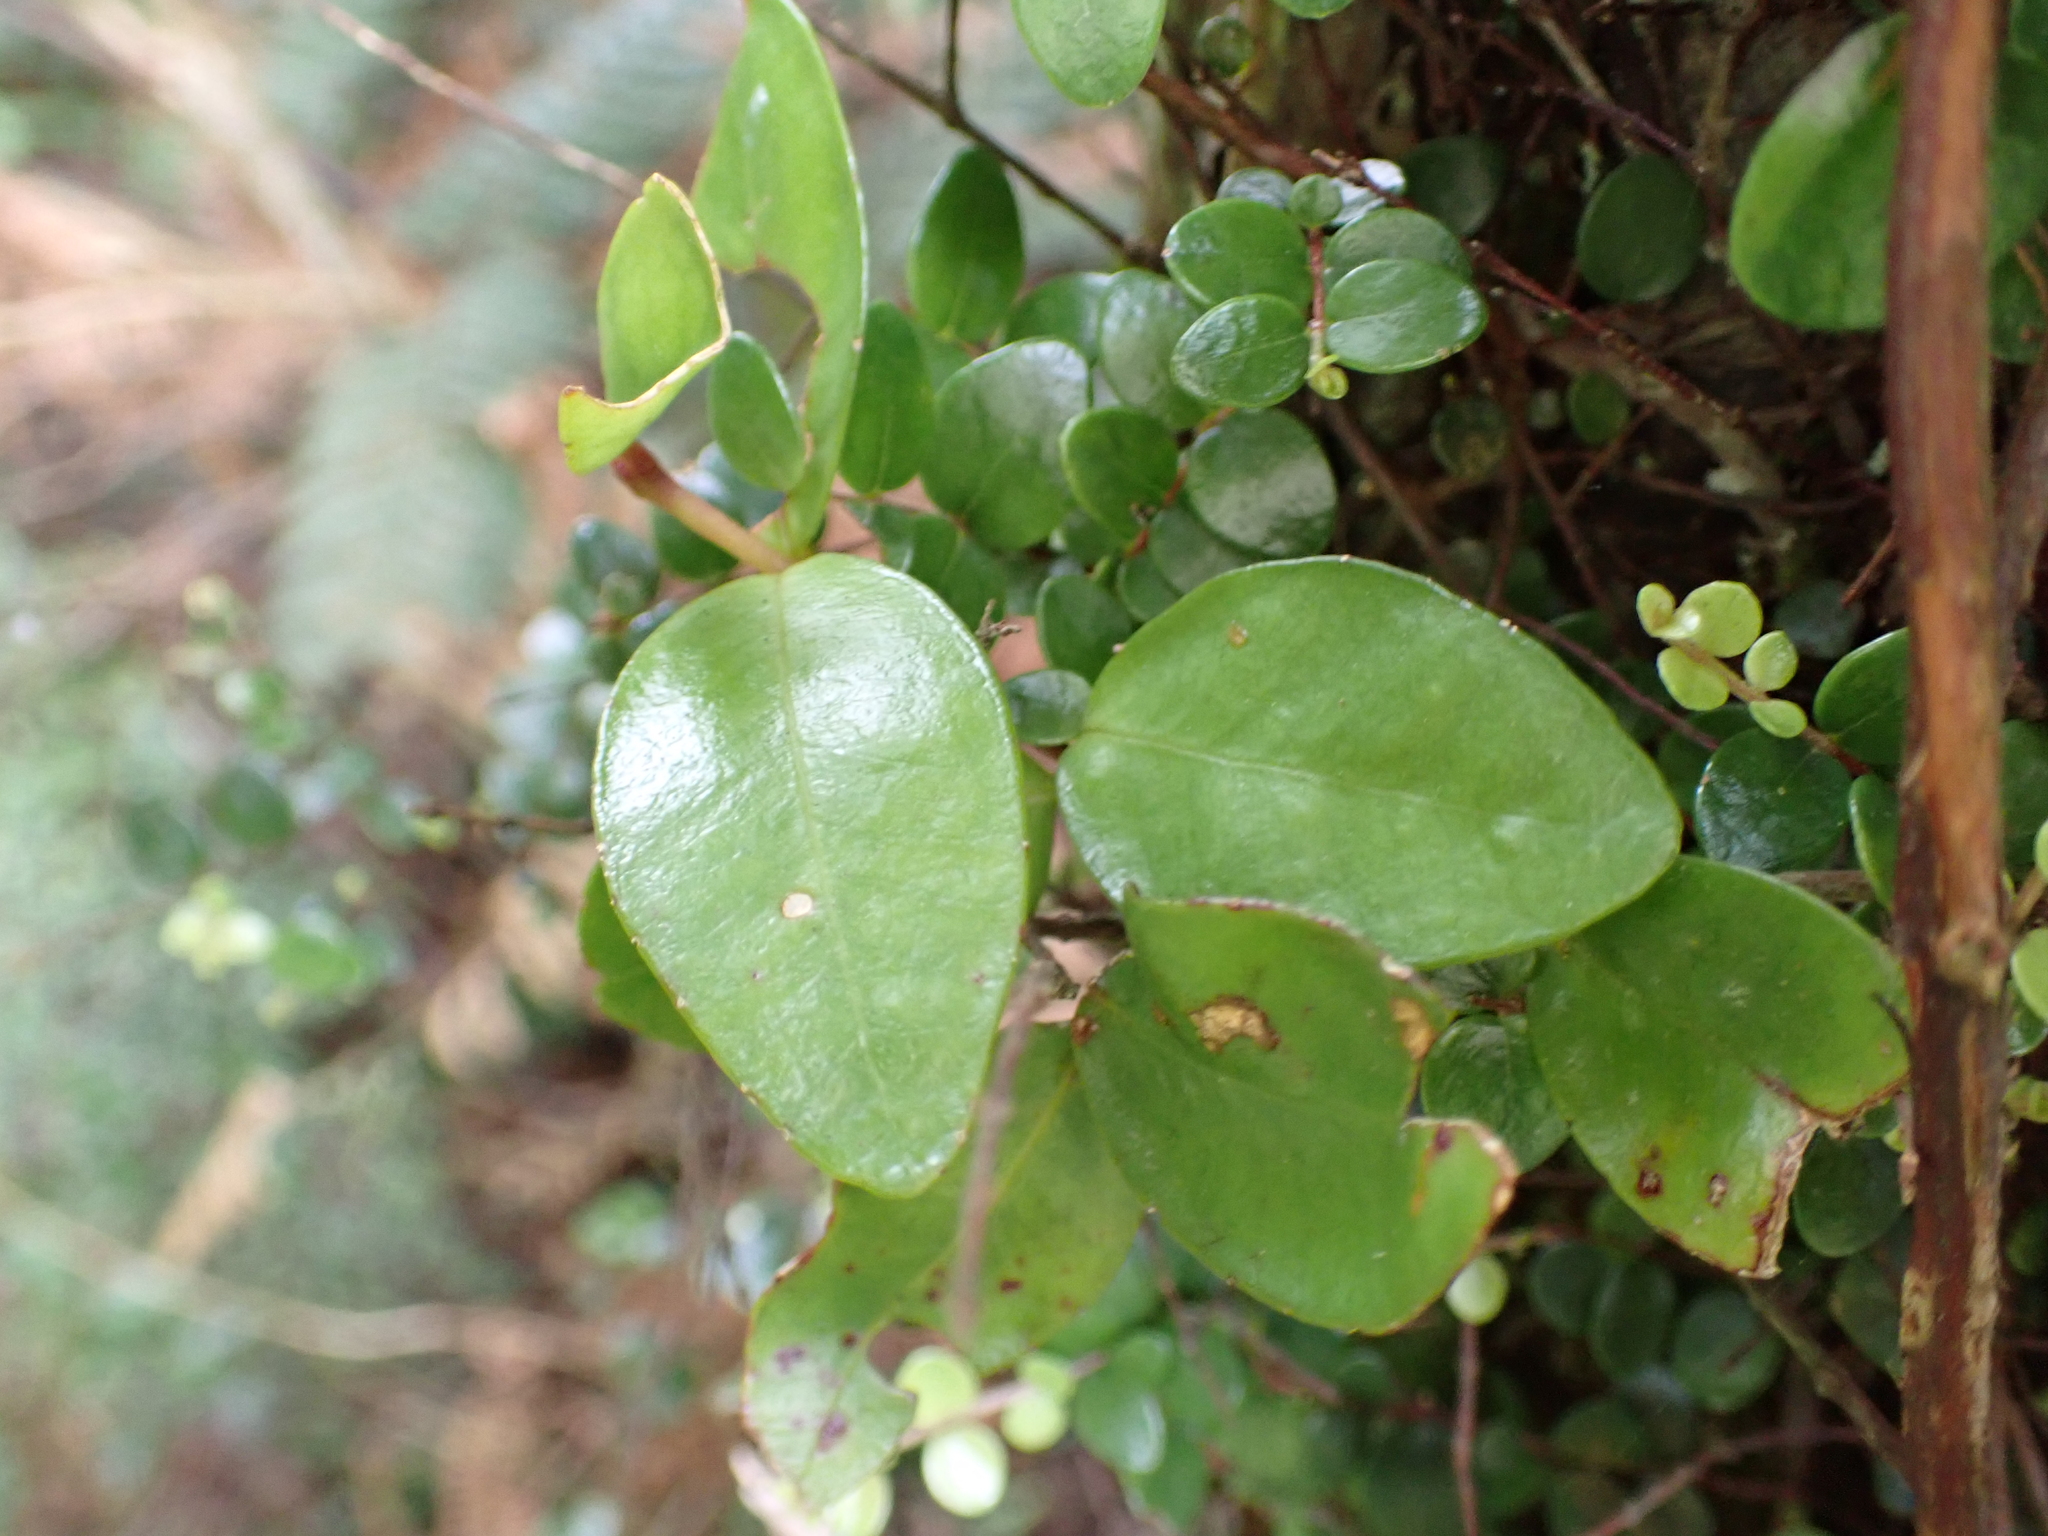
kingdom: Plantae
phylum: Tracheophyta
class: Magnoliopsida
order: Myrtales
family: Myrtaceae
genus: Metrosideros
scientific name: Metrosideros fulgens
